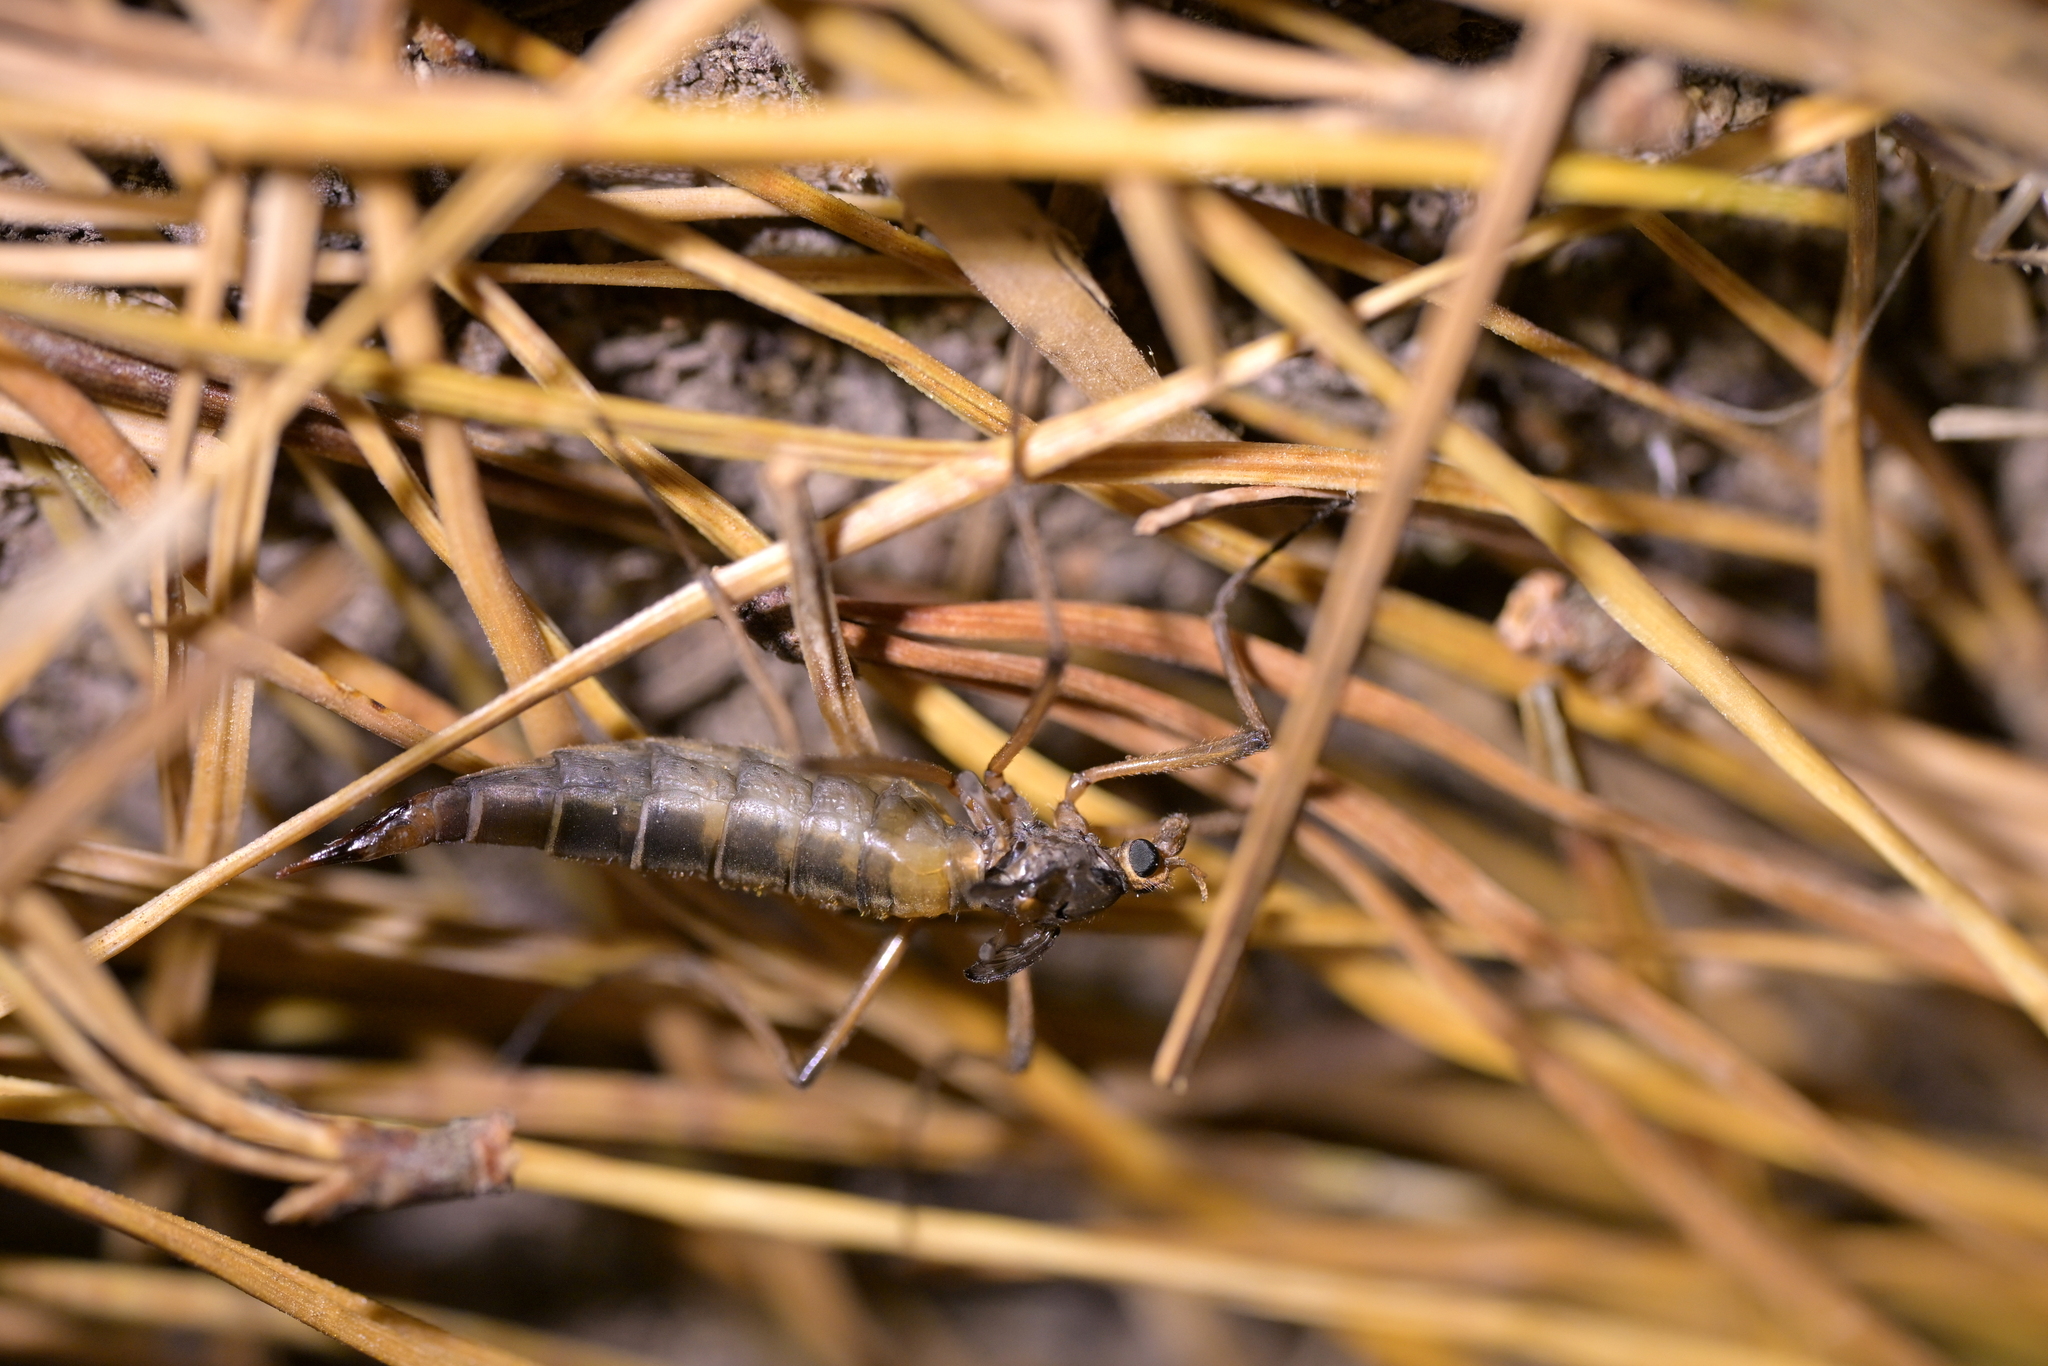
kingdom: Animalia
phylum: Arthropoda
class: Insecta
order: Diptera
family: Tipulidae
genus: Leptotarsus
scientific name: Leptotarsus heterogamus
